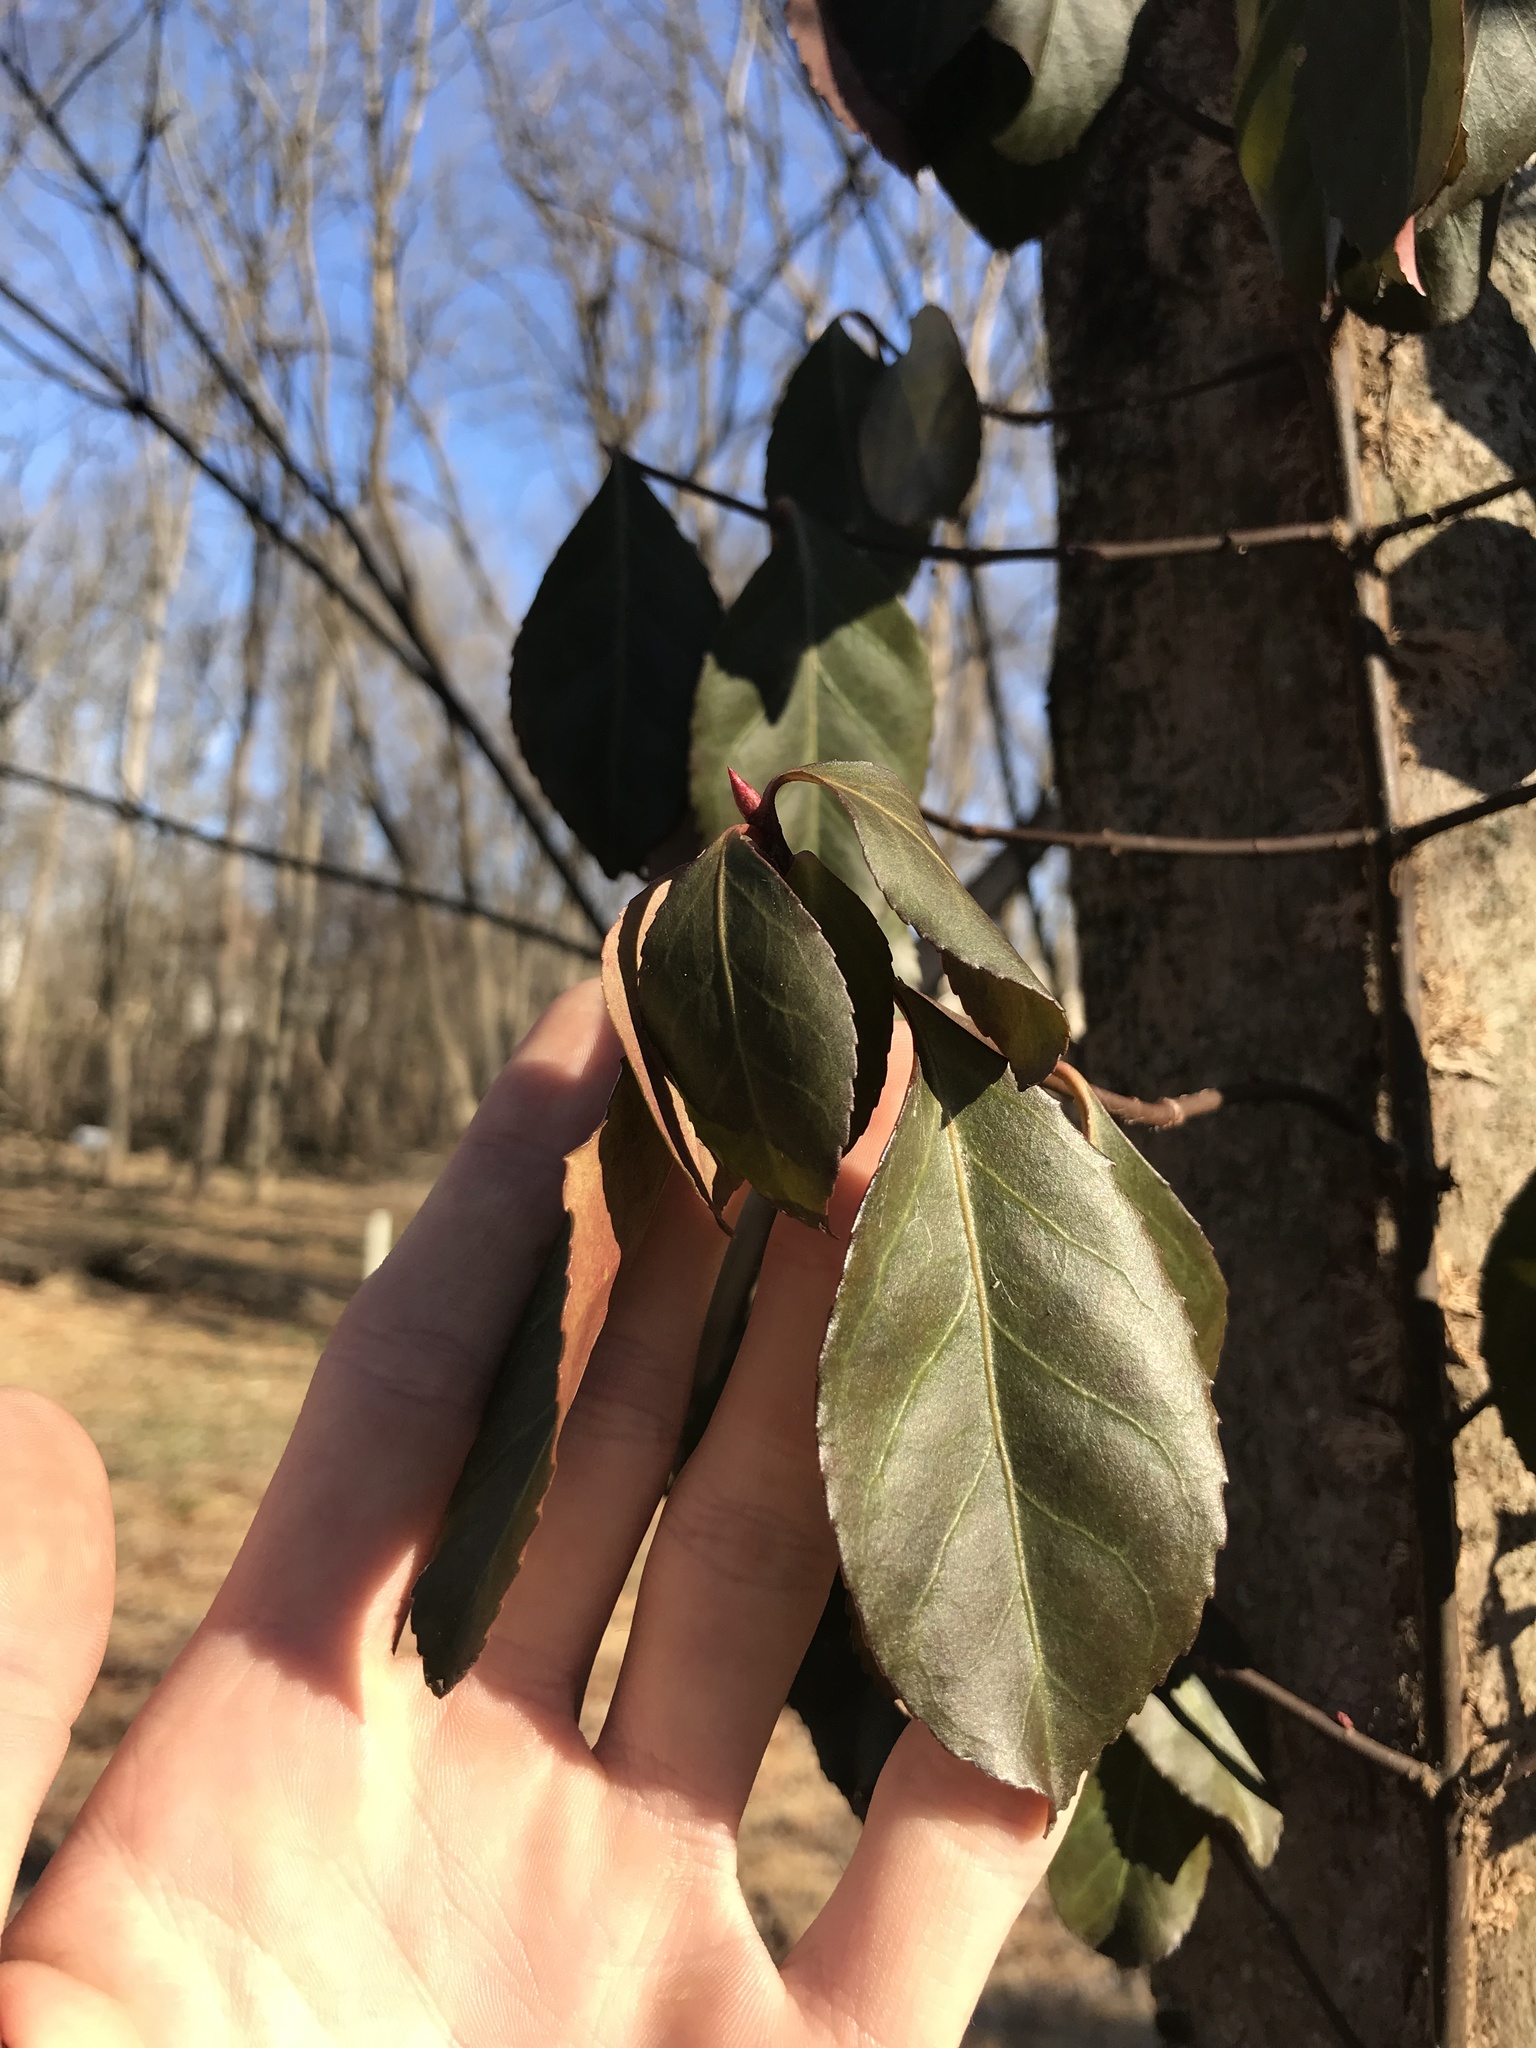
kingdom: Plantae
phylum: Tracheophyta
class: Magnoliopsida
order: Celastrales
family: Celastraceae
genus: Euonymus
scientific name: Euonymus fortunei
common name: Climbing euonymus
